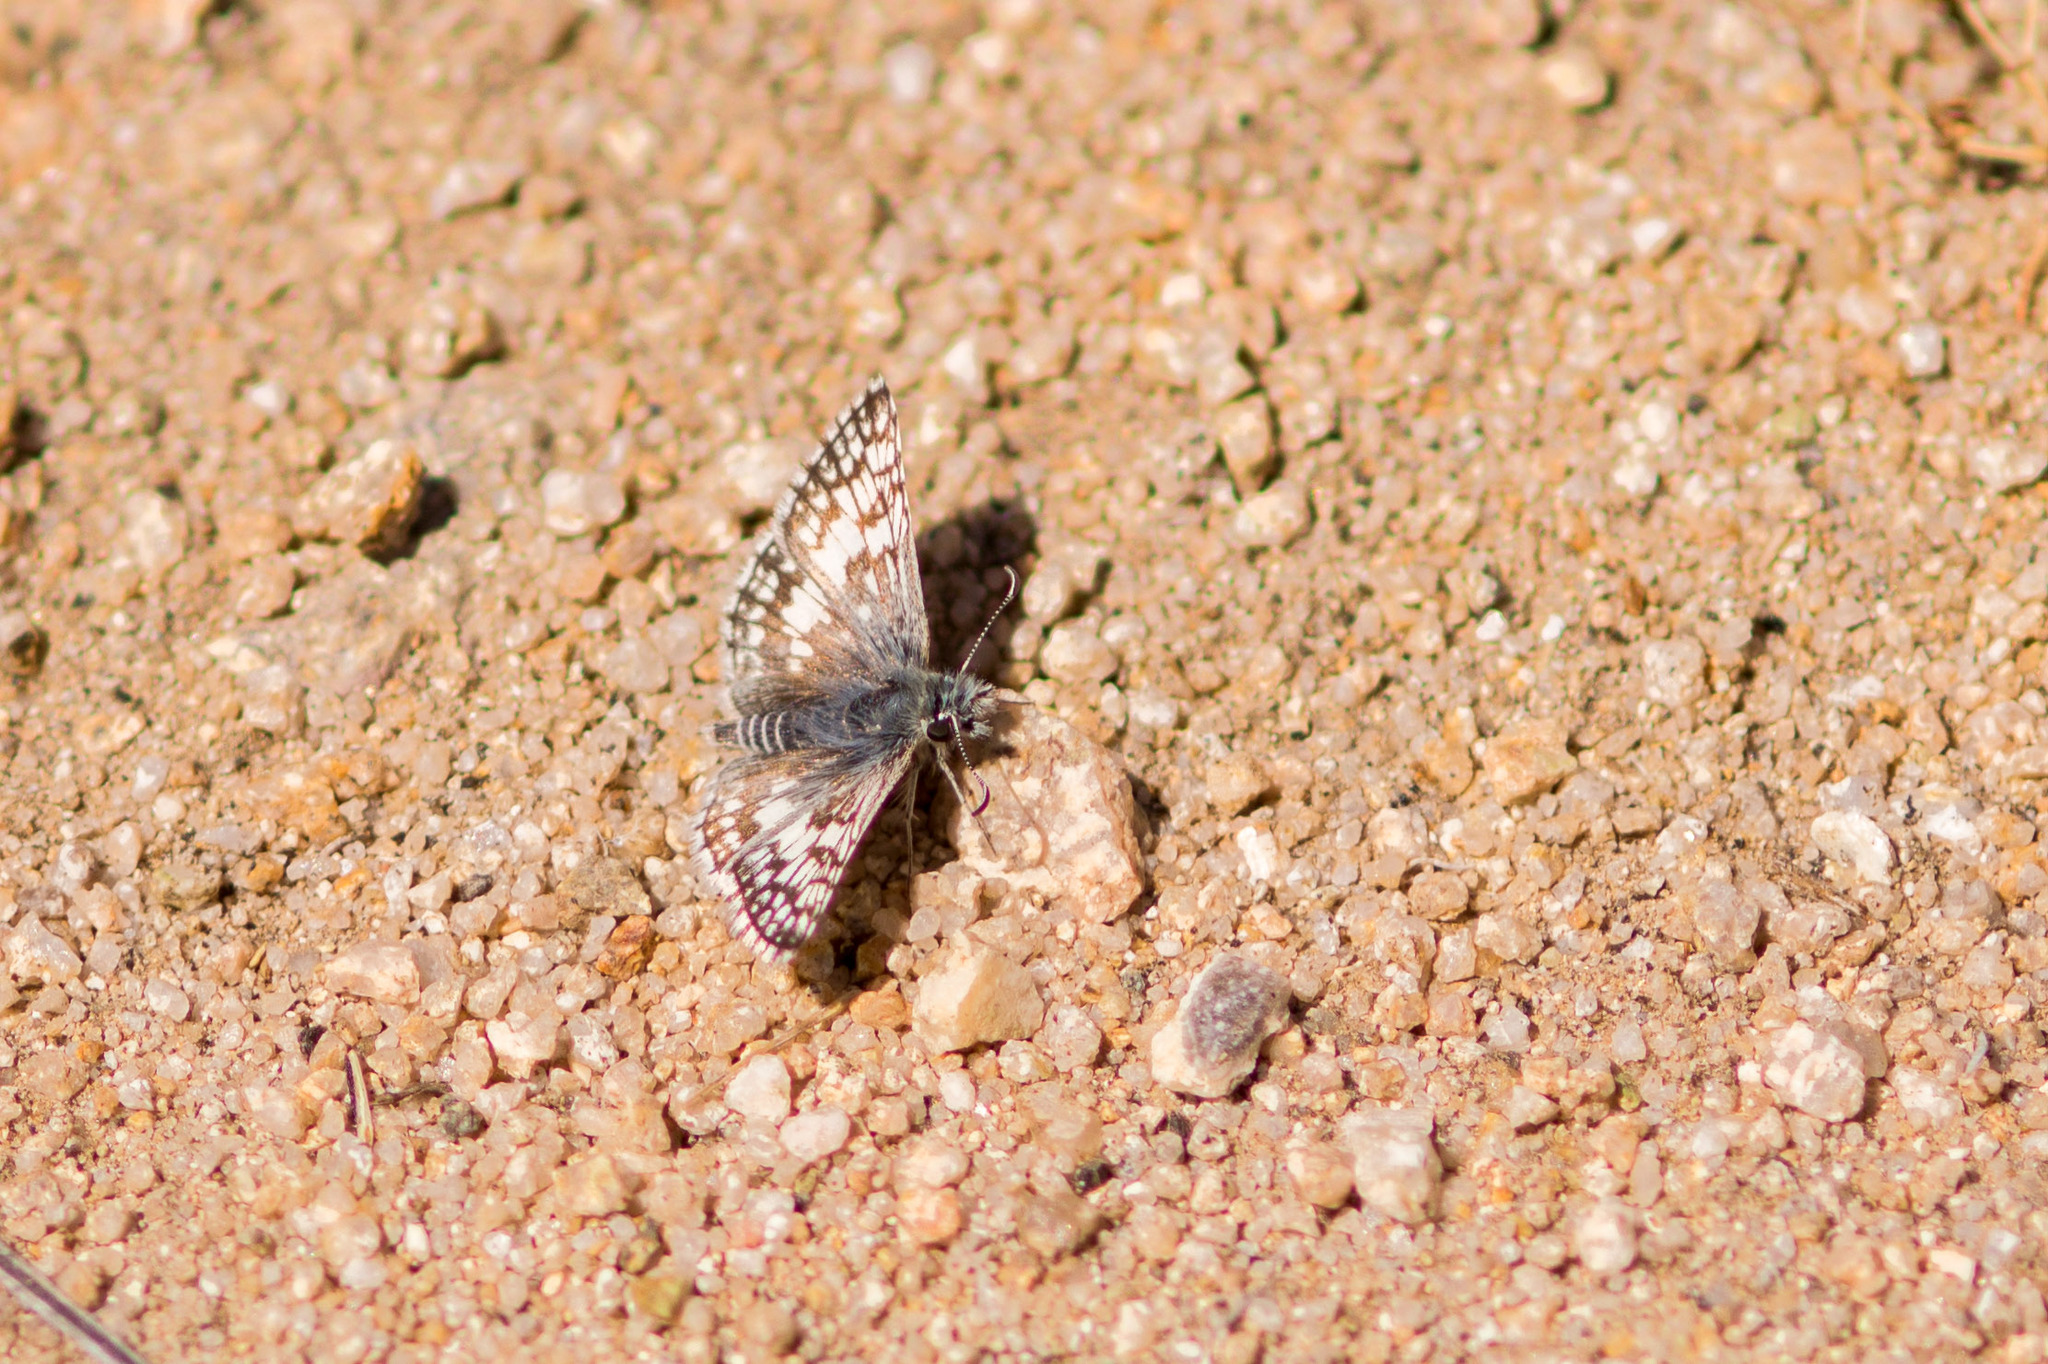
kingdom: Animalia
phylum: Arthropoda
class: Insecta
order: Lepidoptera
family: Hesperiidae
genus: Burnsius
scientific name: Burnsius albezens
